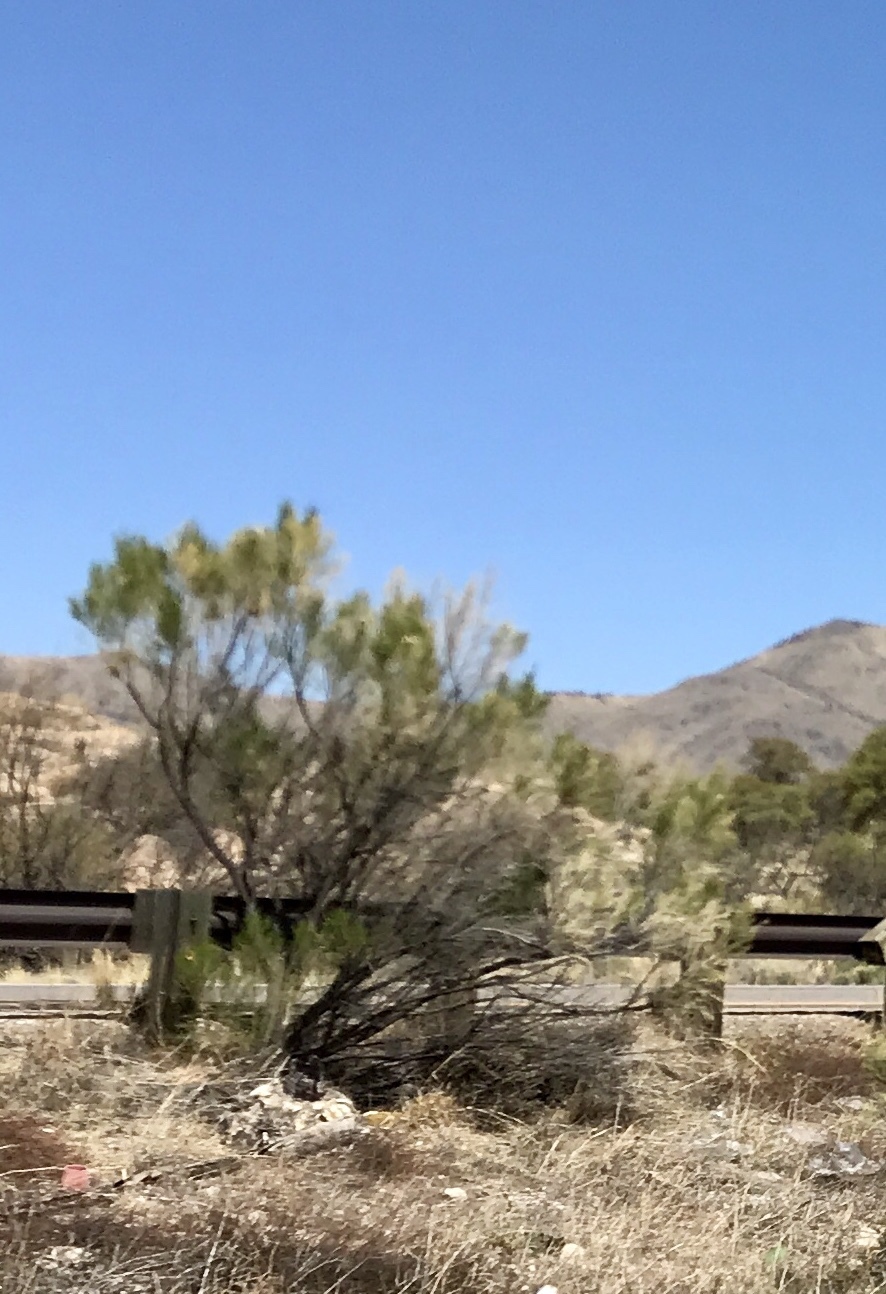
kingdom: Plantae
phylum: Tracheophyta
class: Magnoliopsida
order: Asterales
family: Asteraceae
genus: Baccharis
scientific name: Baccharis sarothroides
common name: Desert-broom
